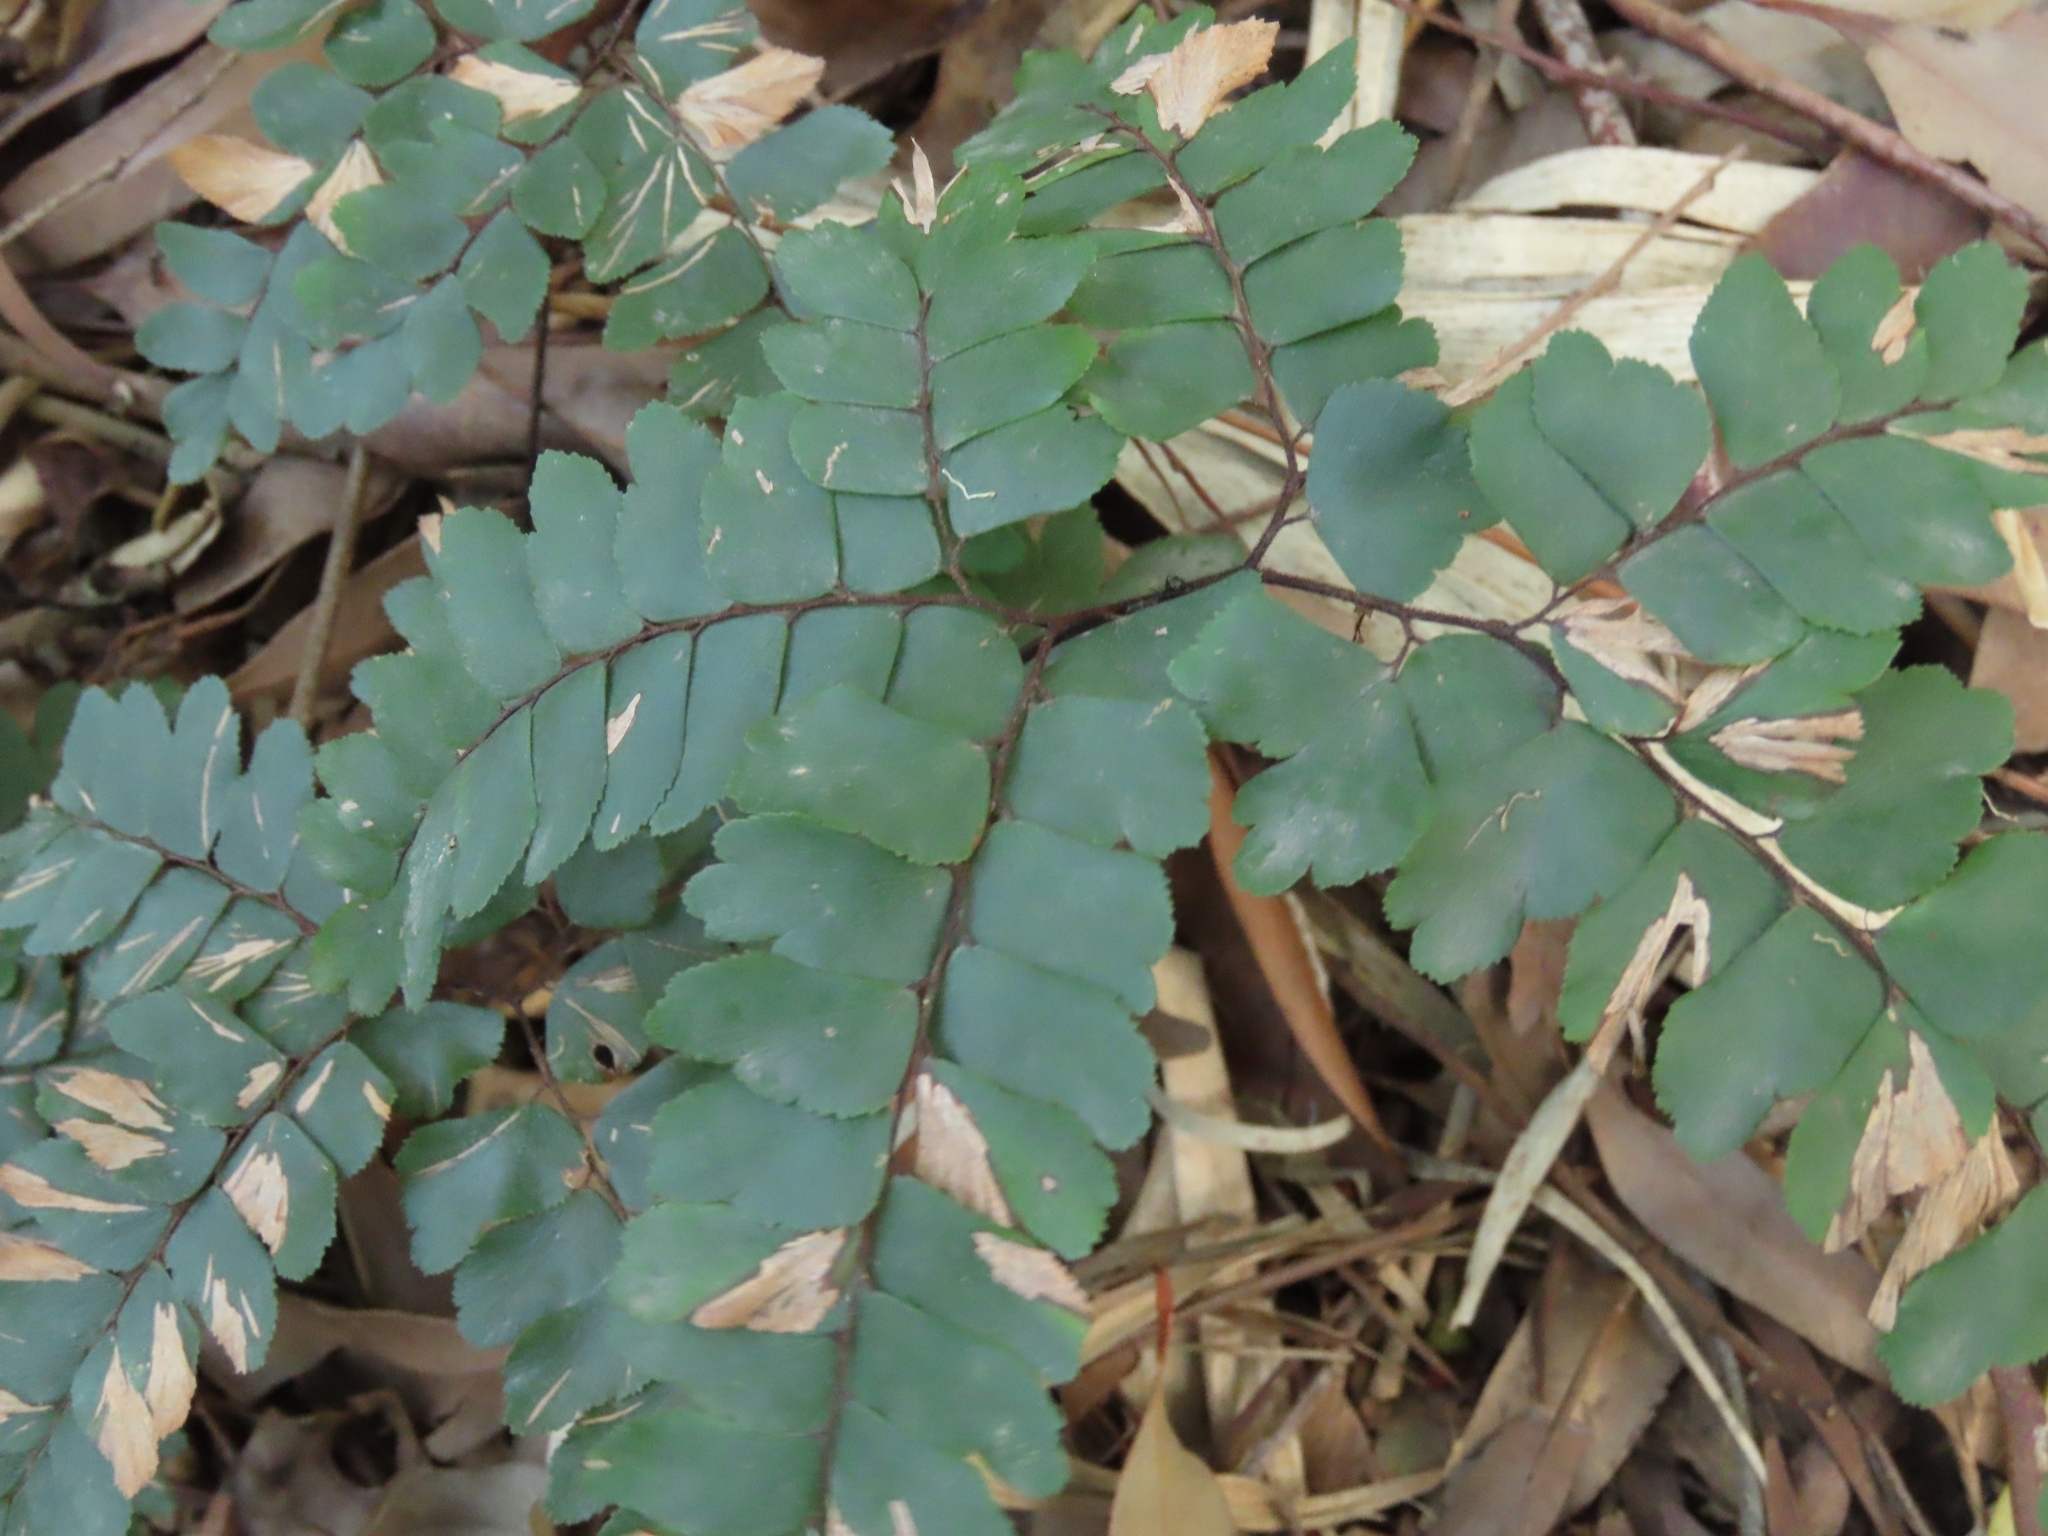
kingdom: Plantae
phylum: Tracheophyta
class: Polypodiopsida
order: Polypodiales
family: Pteridaceae
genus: Adiantum
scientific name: Adiantum flabellulatum
